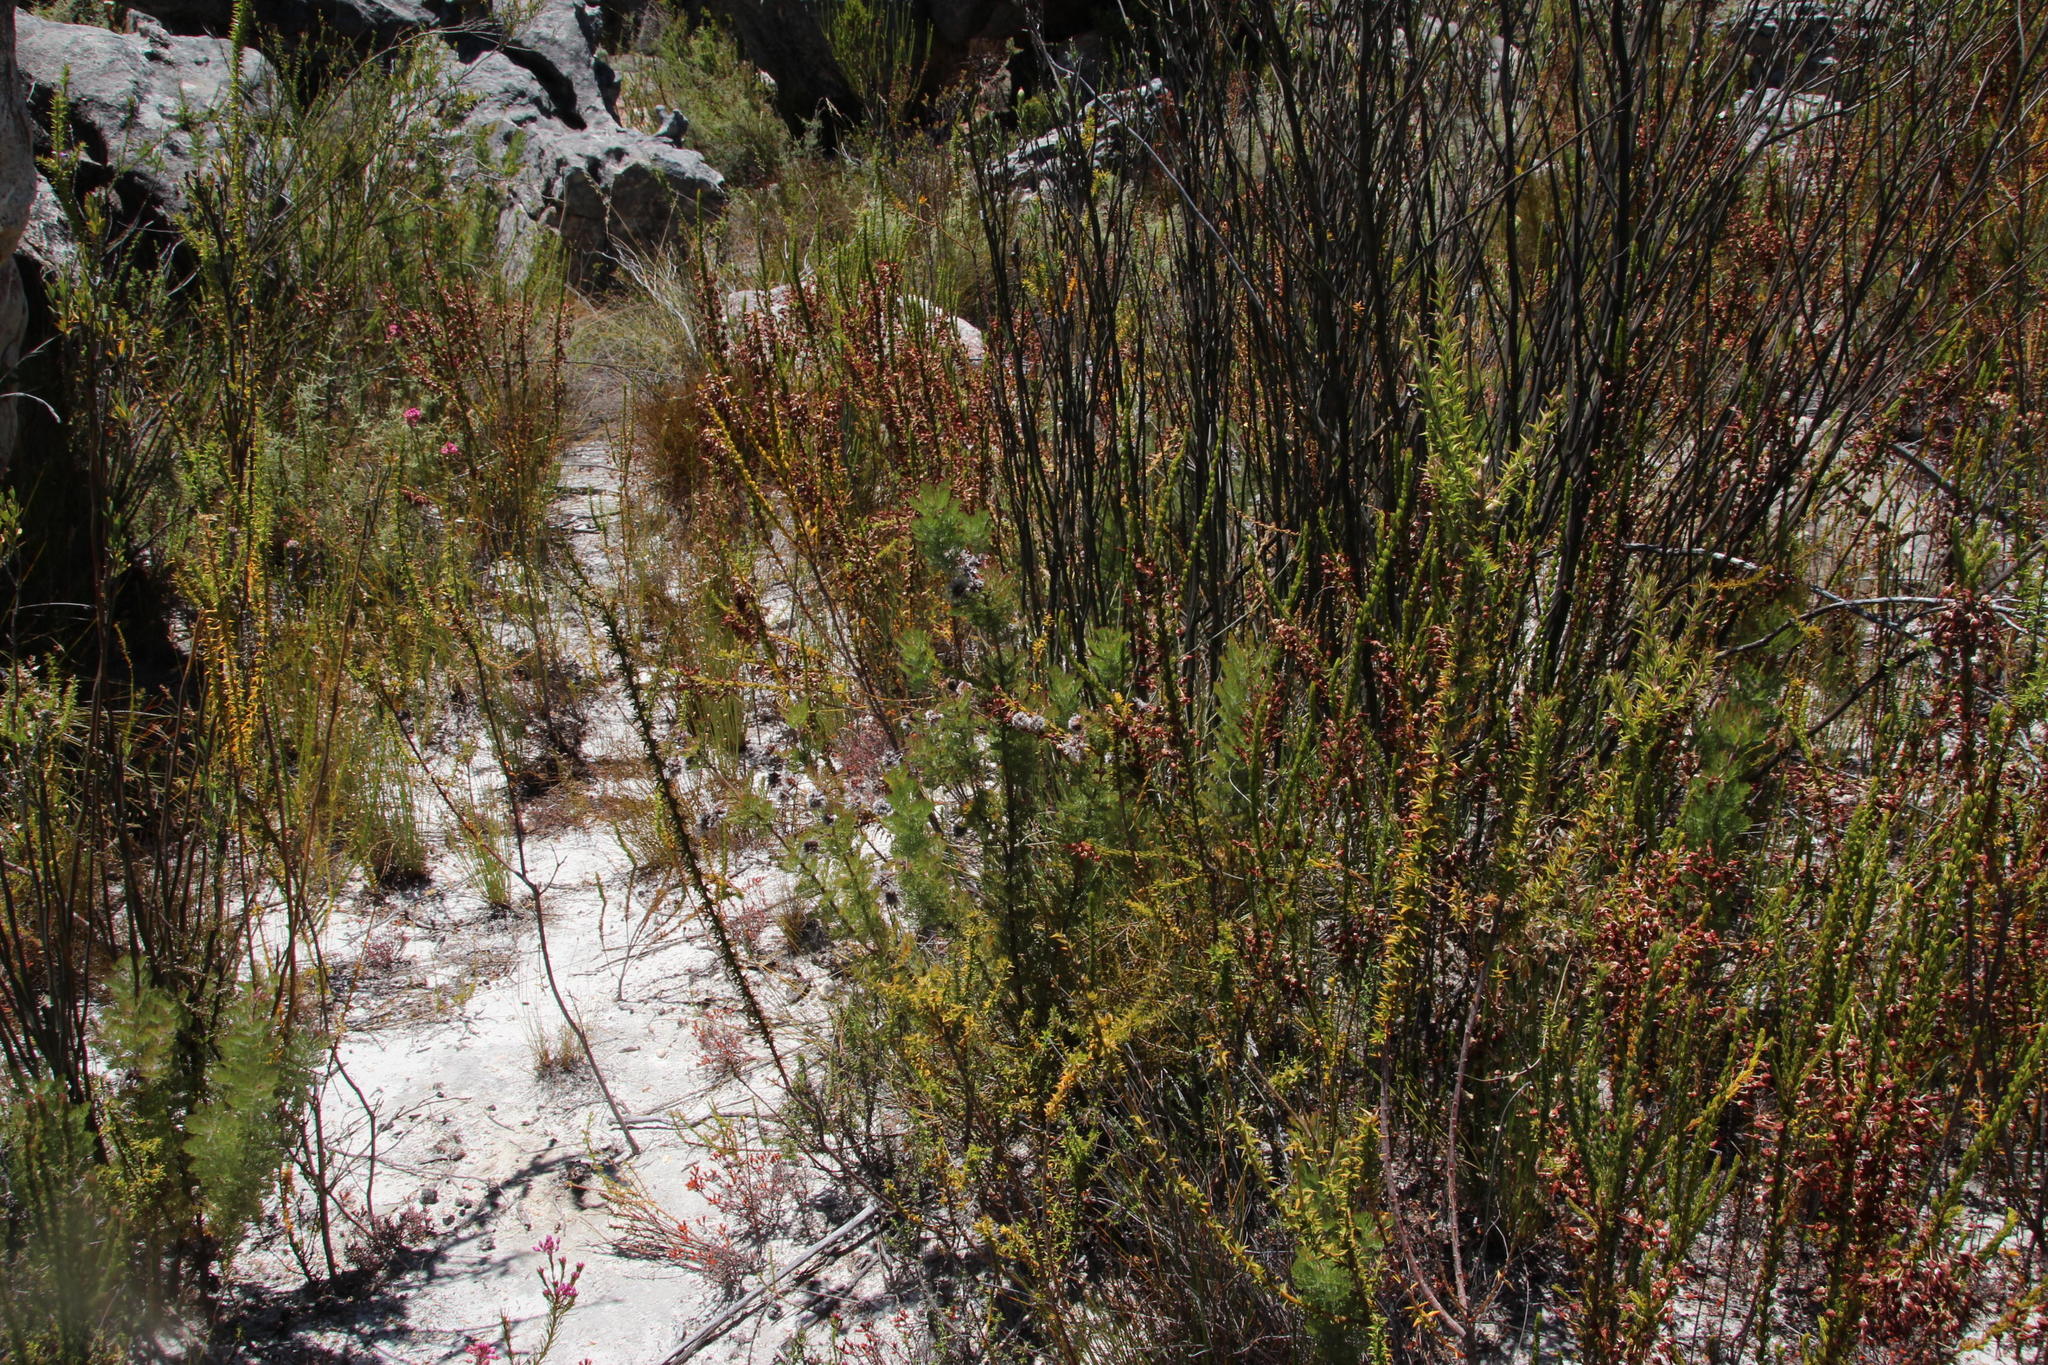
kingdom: Plantae
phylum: Tracheophyta
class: Magnoliopsida
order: Proteales
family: Proteaceae
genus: Serruria
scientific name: Serruria aitonii
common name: Marshmallow spiderhead
